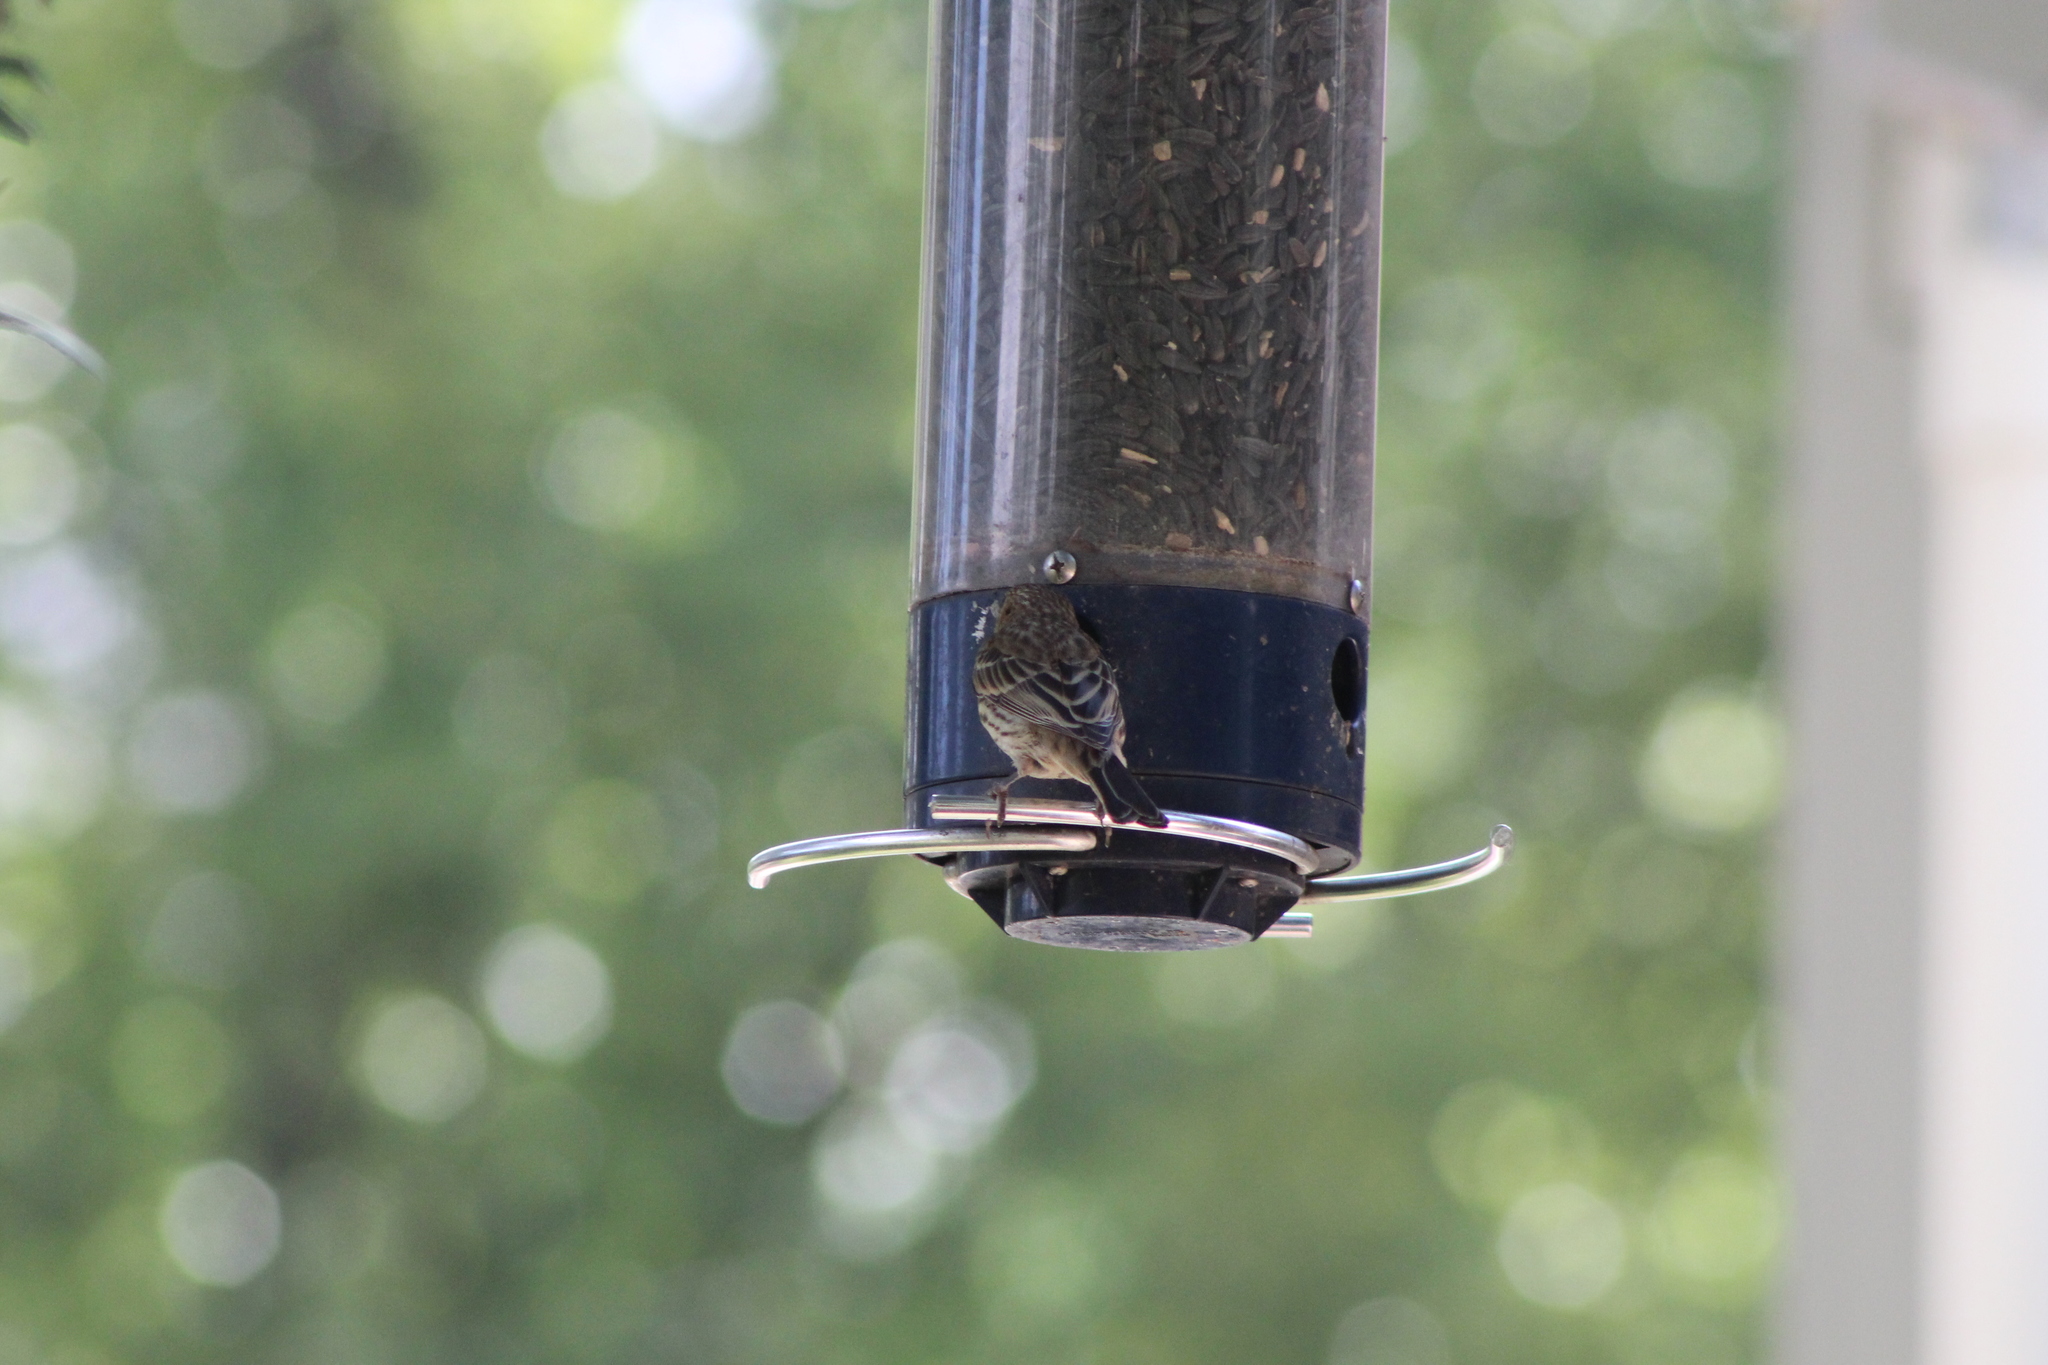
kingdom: Animalia
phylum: Chordata
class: Aves
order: Passeriformes
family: Fringillidae
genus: Haemorhous
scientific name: Haemorhous mexicanus
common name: House finch
